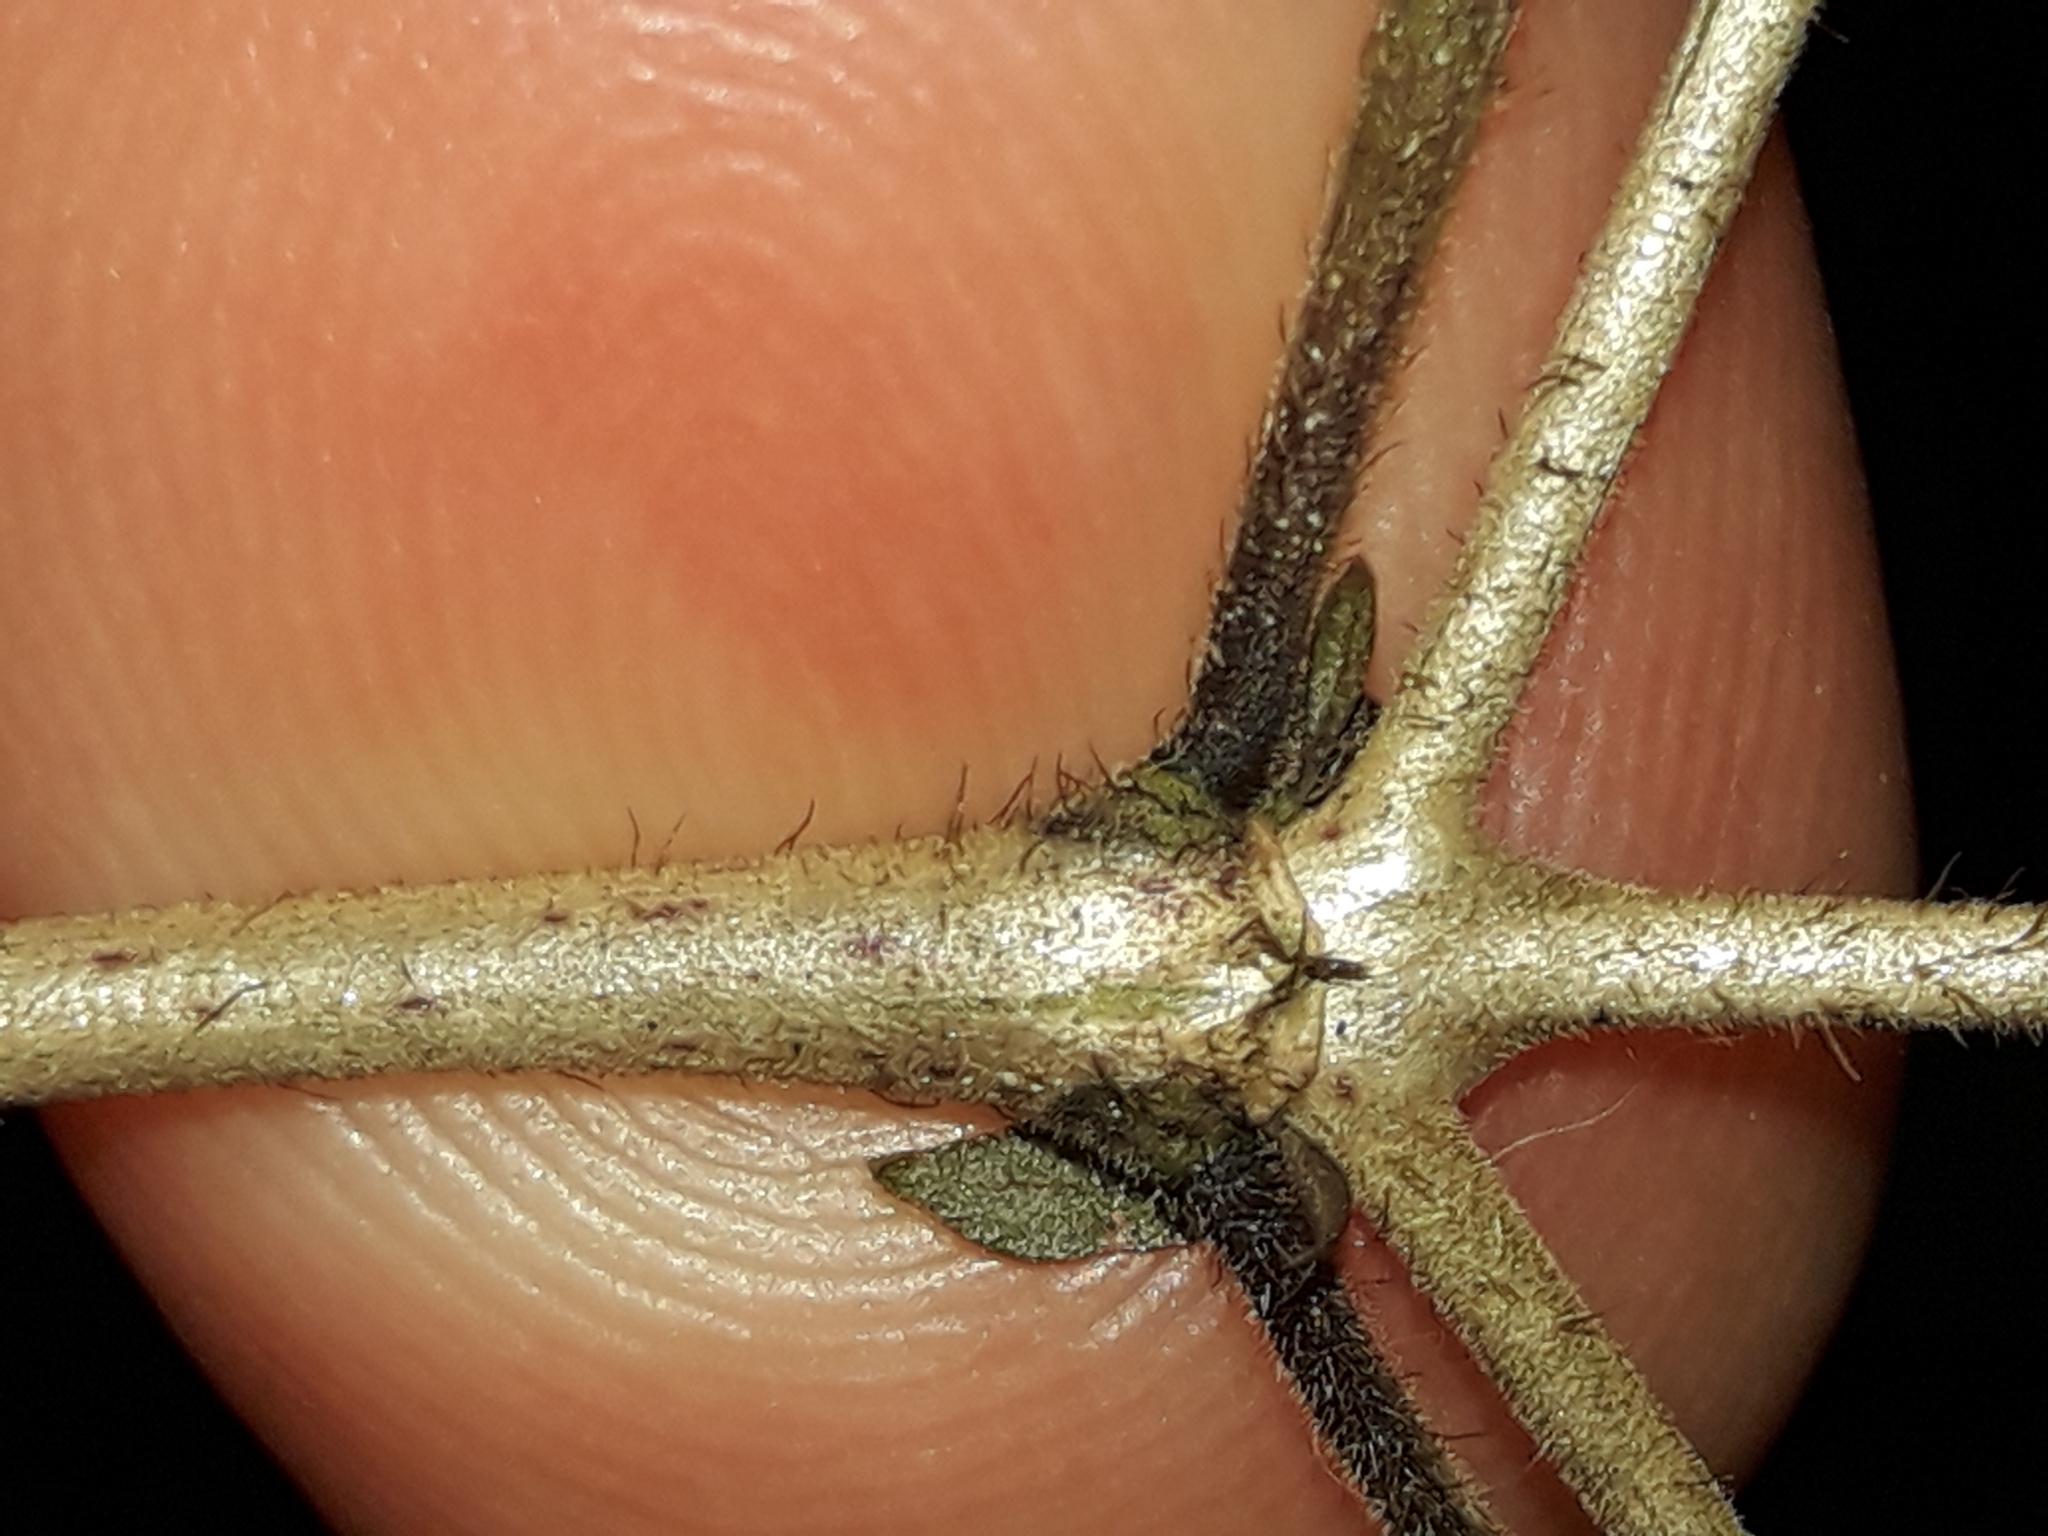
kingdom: Plantae
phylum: Tracheophyta
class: Magnoliopsida
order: Gentianales
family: Rubiaceae
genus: Coprosma
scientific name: Coprosma rotundifolia
